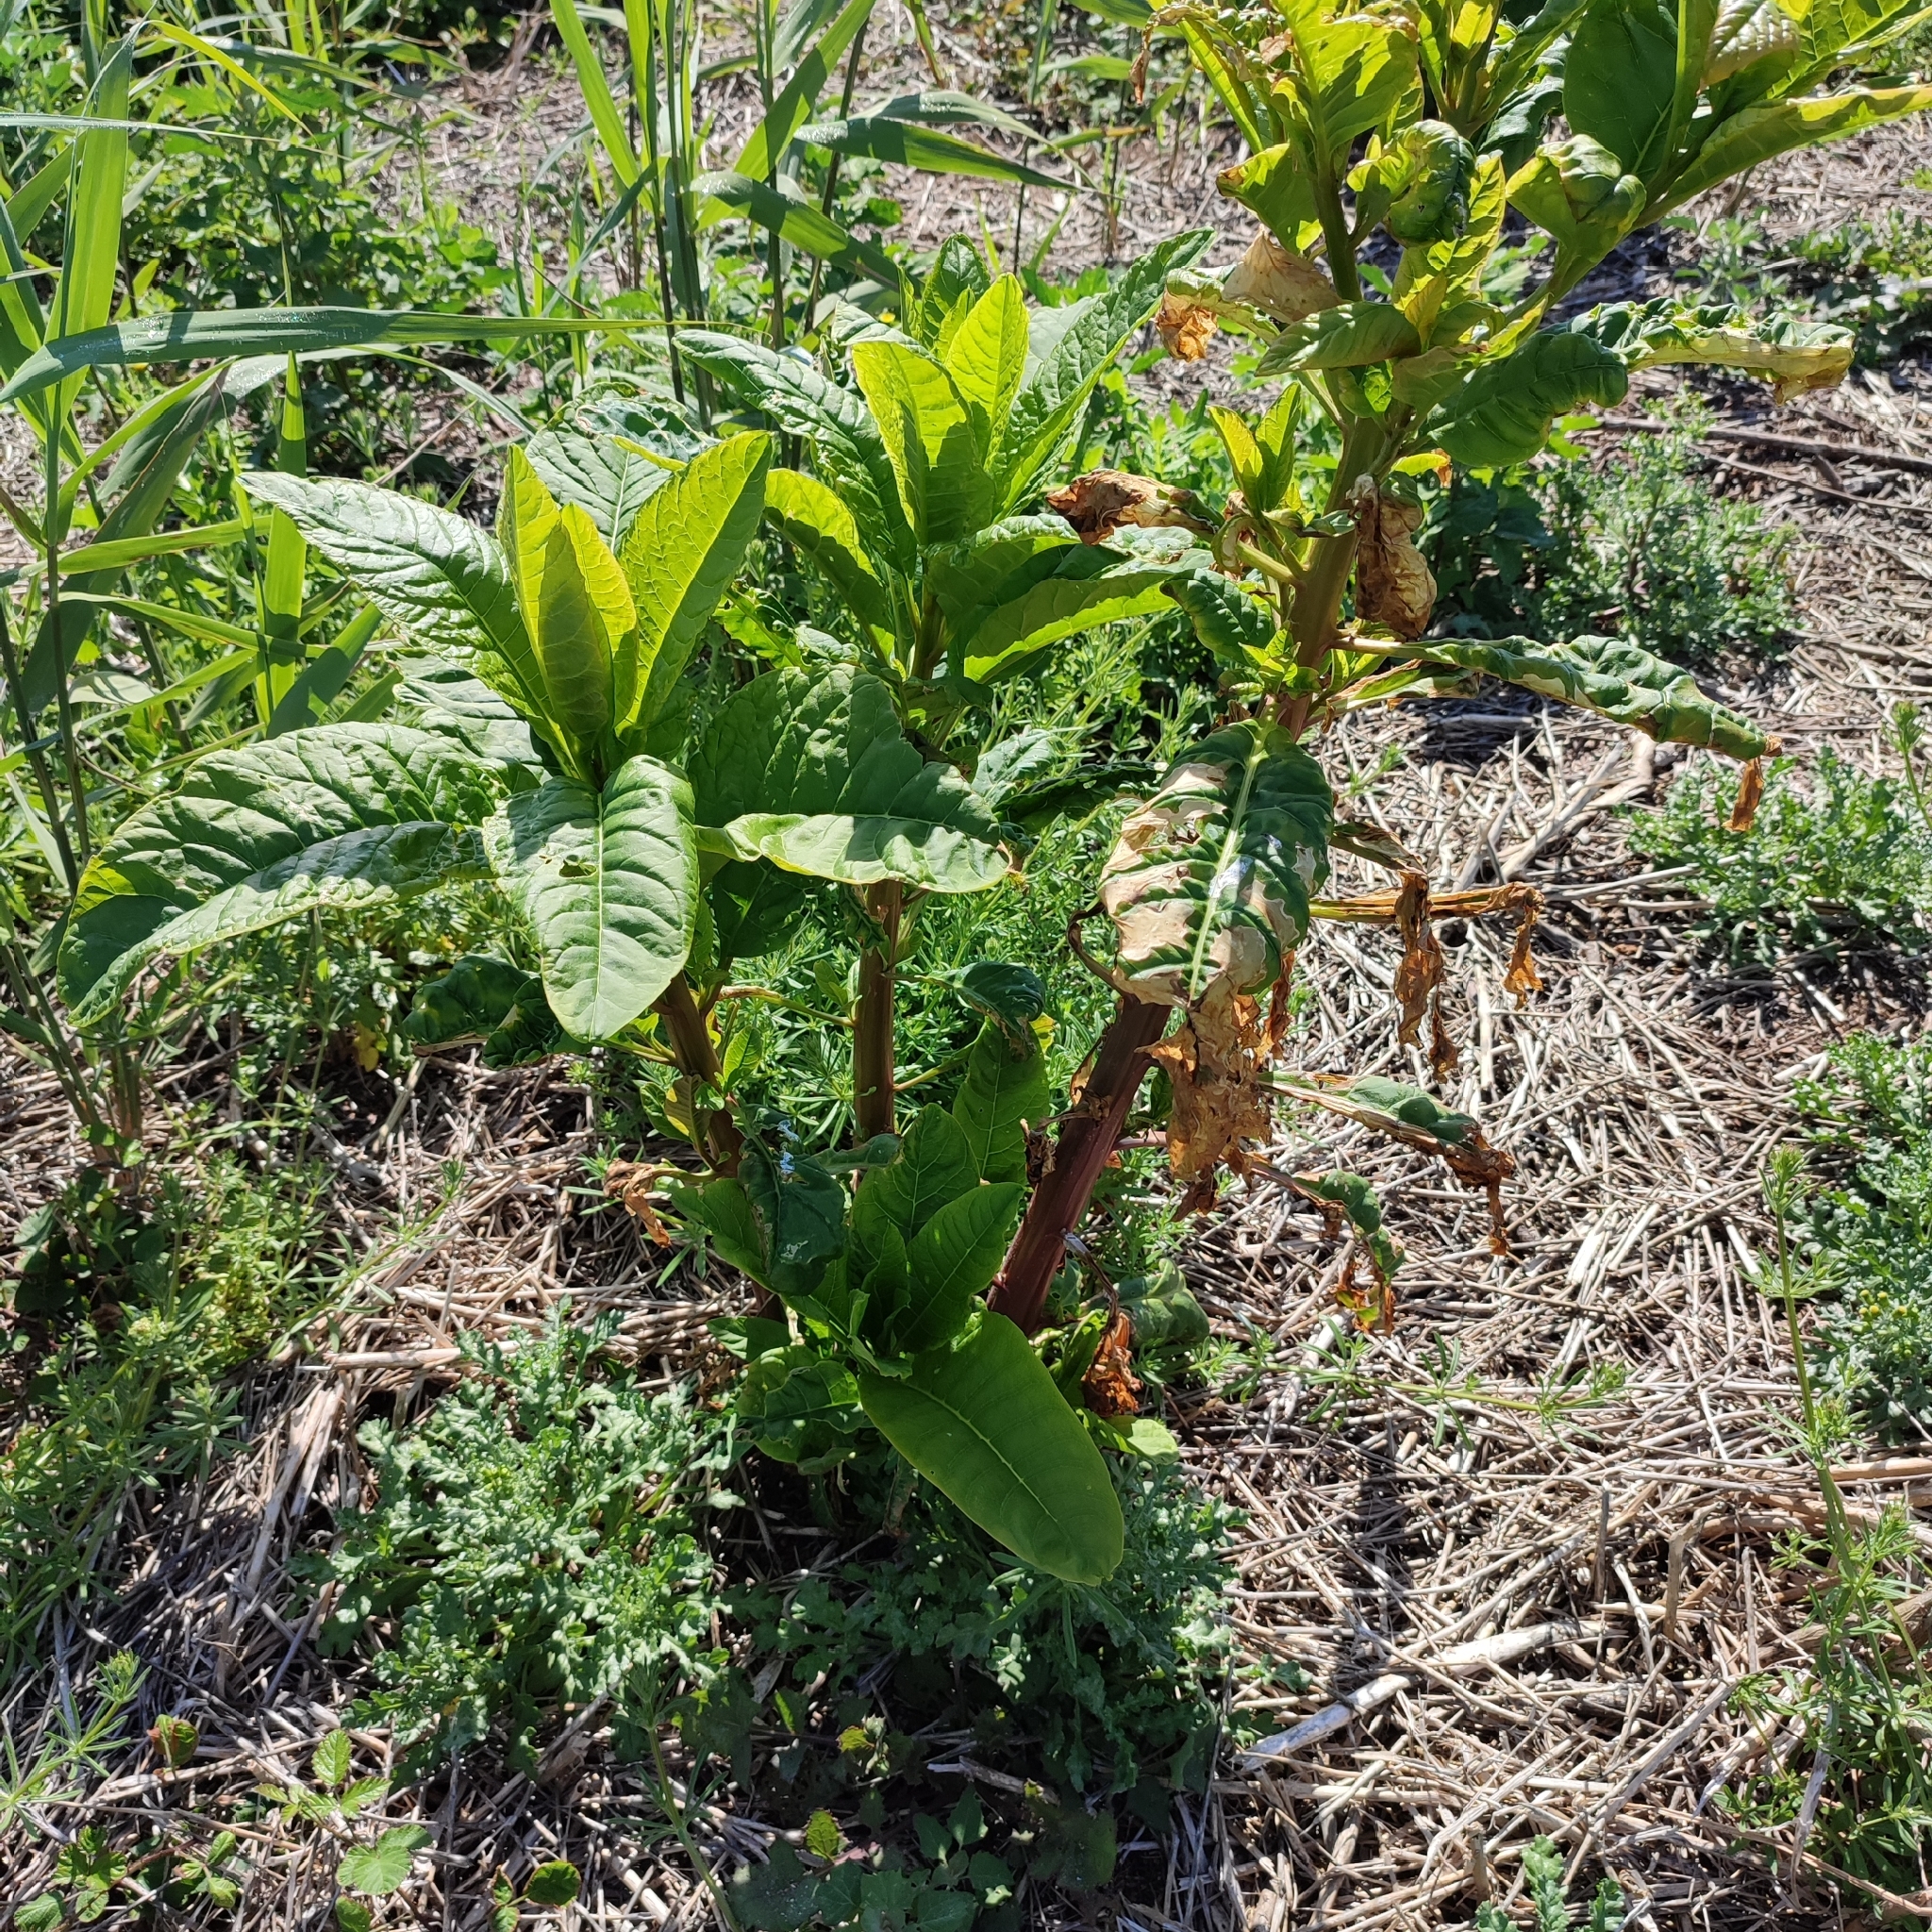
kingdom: Plantae
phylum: Tracheophyta
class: Magnoliopsida
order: Caryophyllales
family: Phytolaccaceae
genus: Phytolacca
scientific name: Phytolacca americana
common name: American pokeweed
